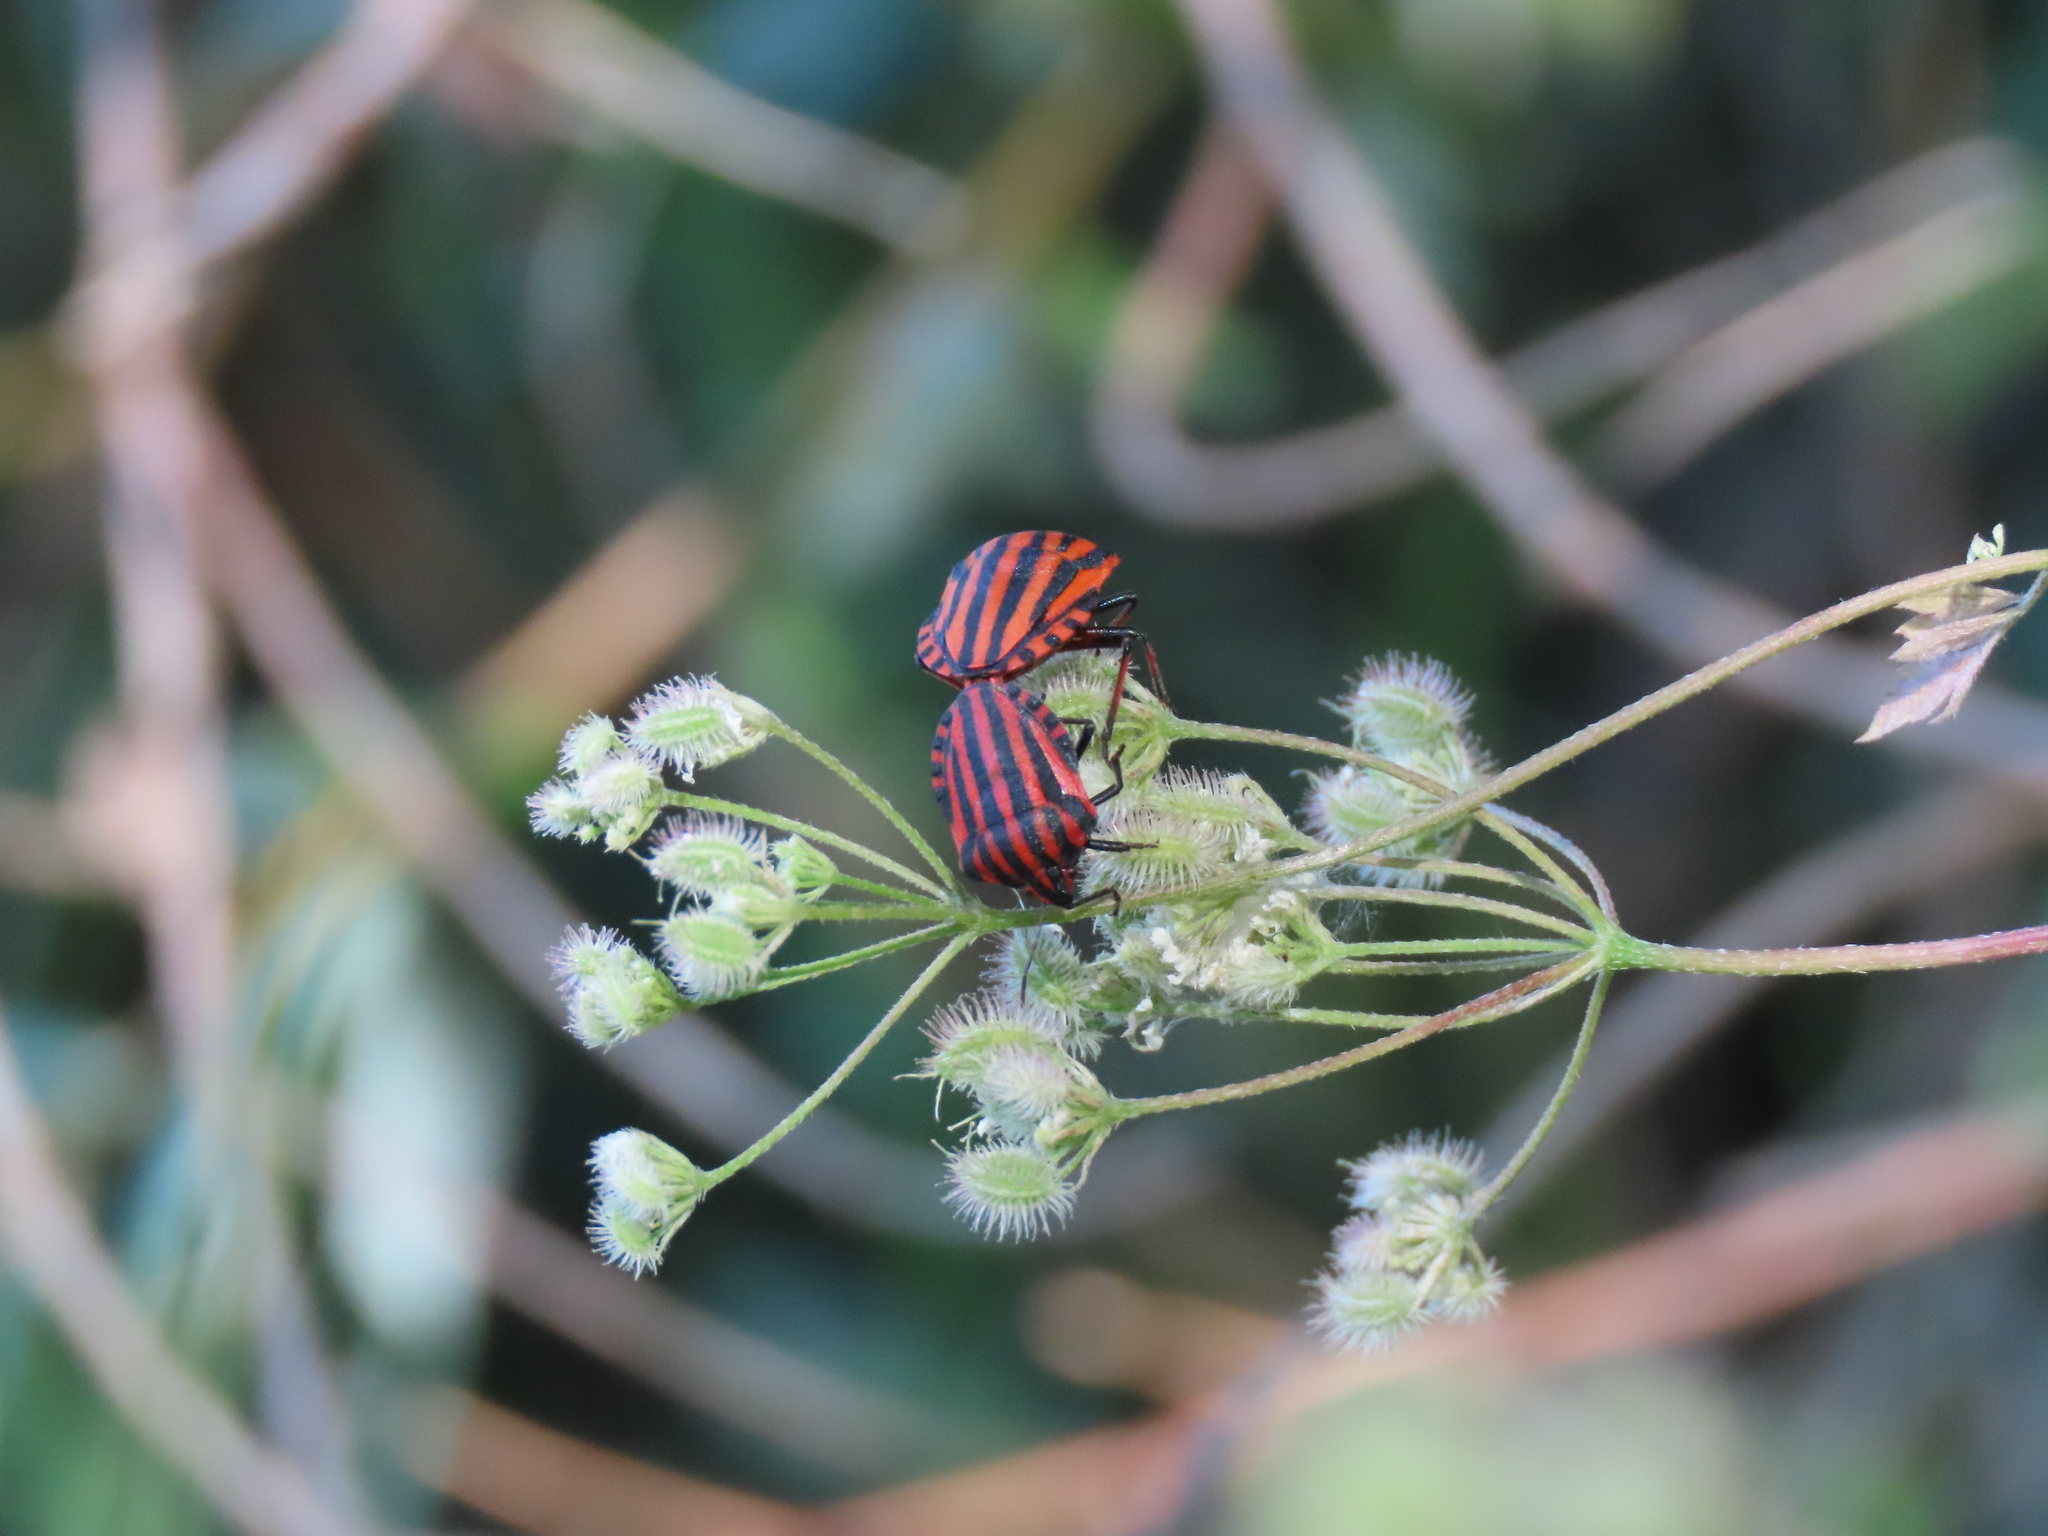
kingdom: Animalia
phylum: Arthropoda
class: Insecta
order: Hemiptera
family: Pentatomidae
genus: Graphosoma
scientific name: Graphosoma italicum
